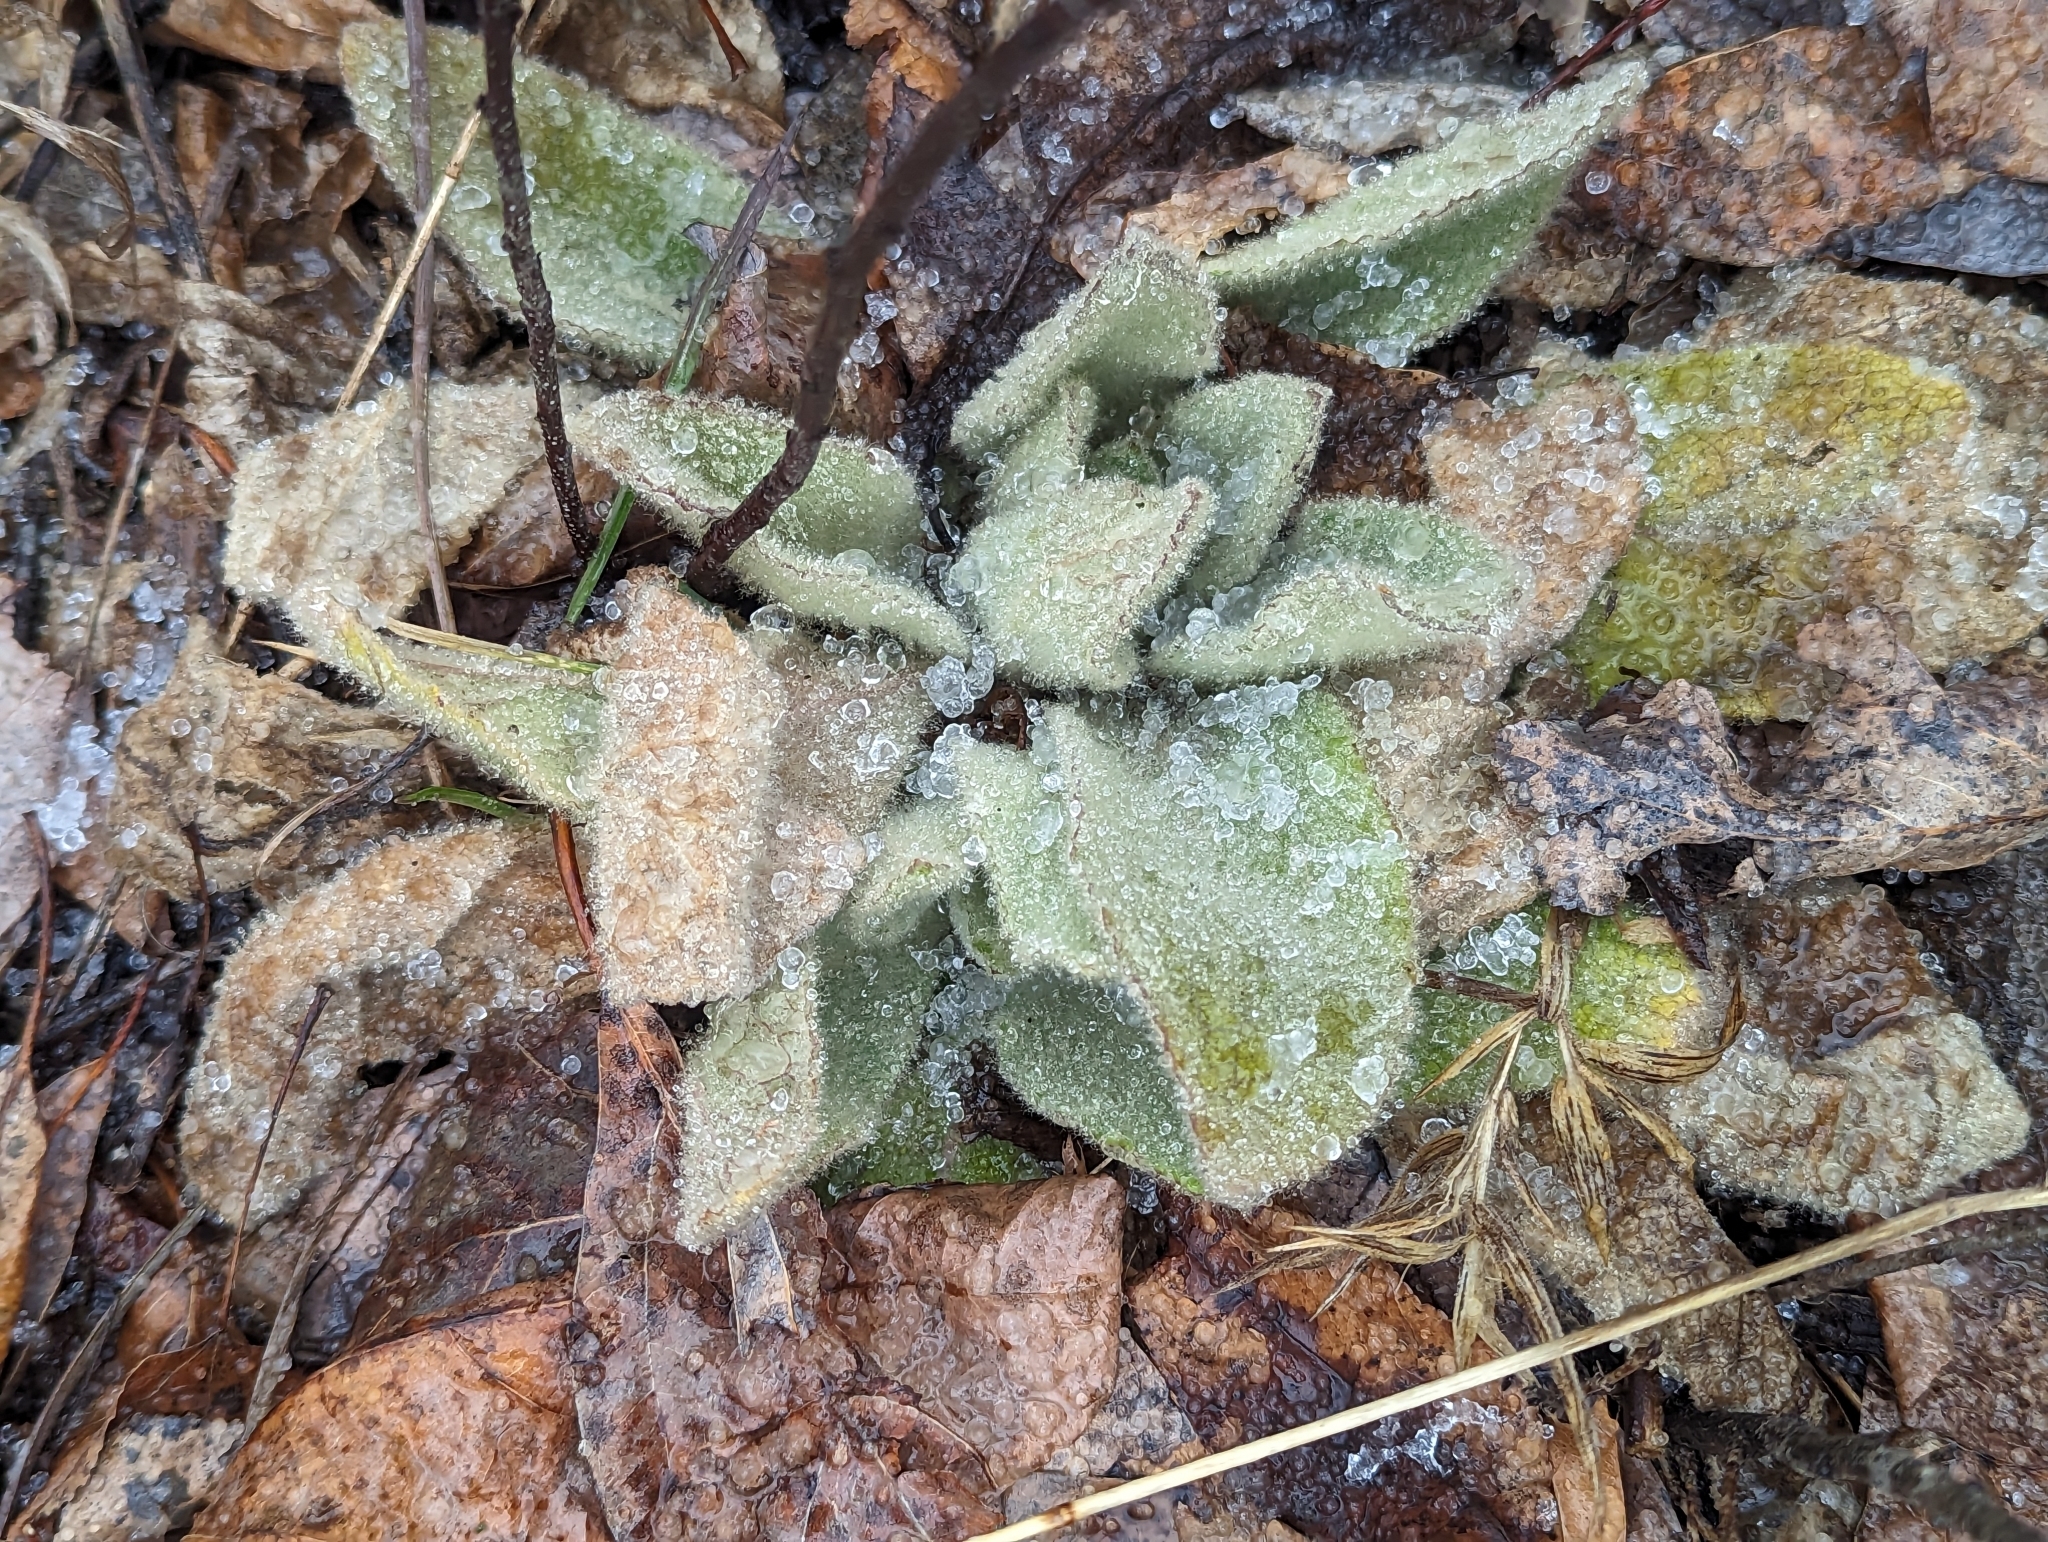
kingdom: Plantae
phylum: Tracheophyta
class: Magnoliopsida
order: Lamiales
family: Scrophulariaceae
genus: Verbascum
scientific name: Verbascum thapsus
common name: Common mullein
